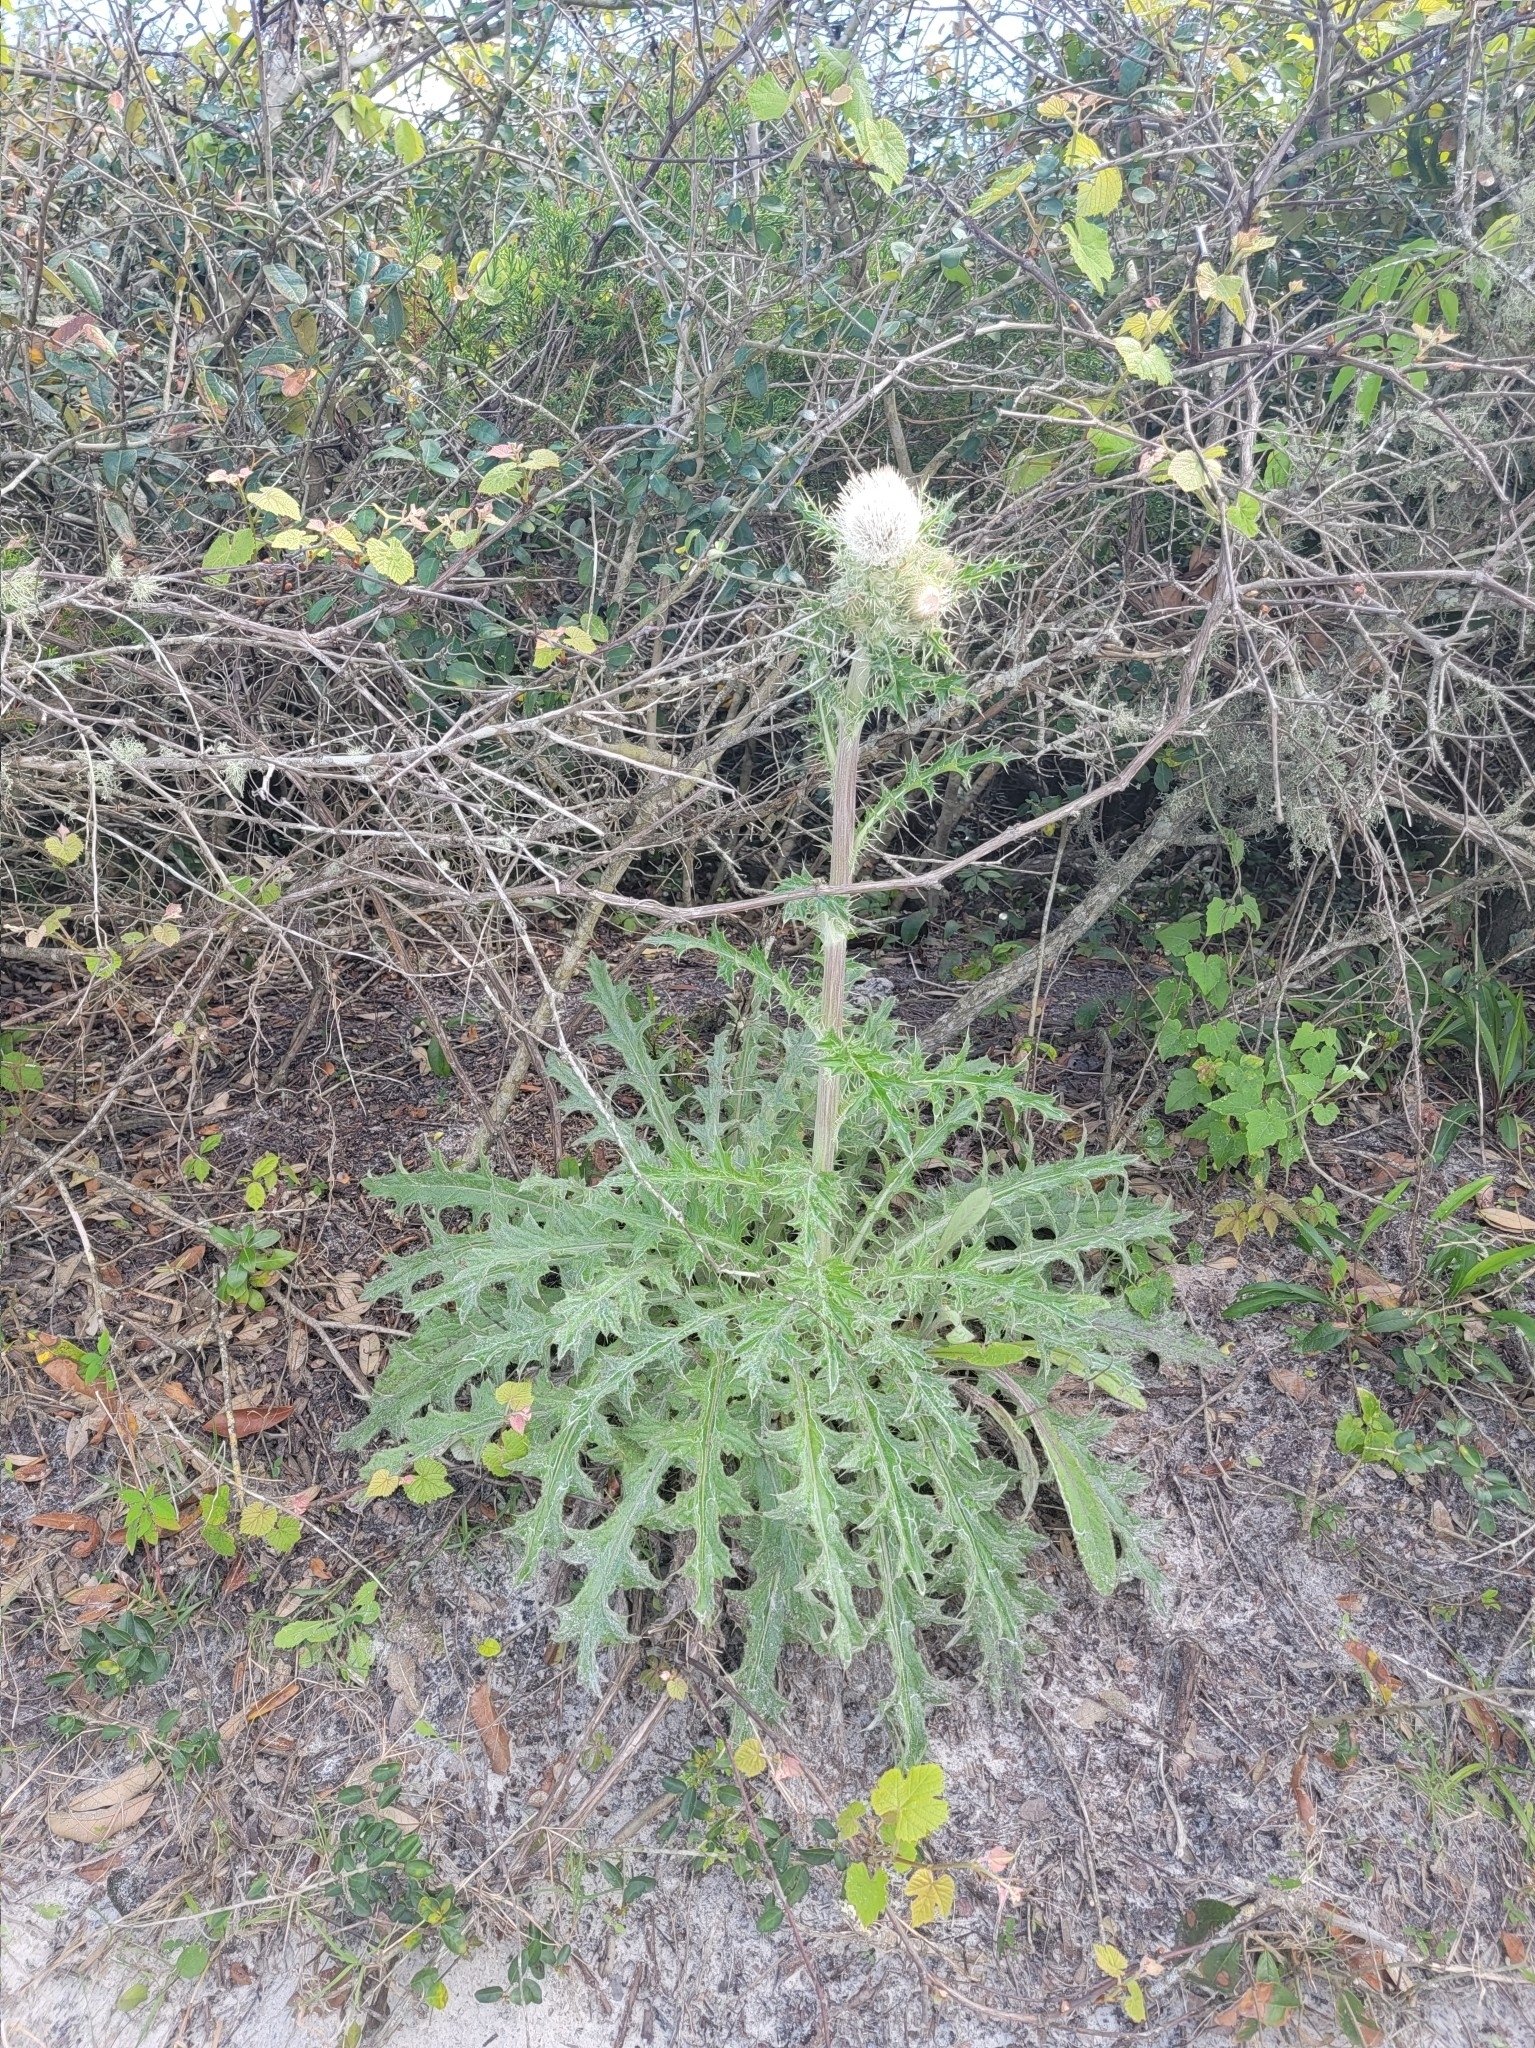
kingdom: Plantae
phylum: Tracheophyta
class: Magnoliopsida
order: Asterales
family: Asteraceae
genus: Cirsium
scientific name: Cirsium horridulum
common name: Bristly thistle
